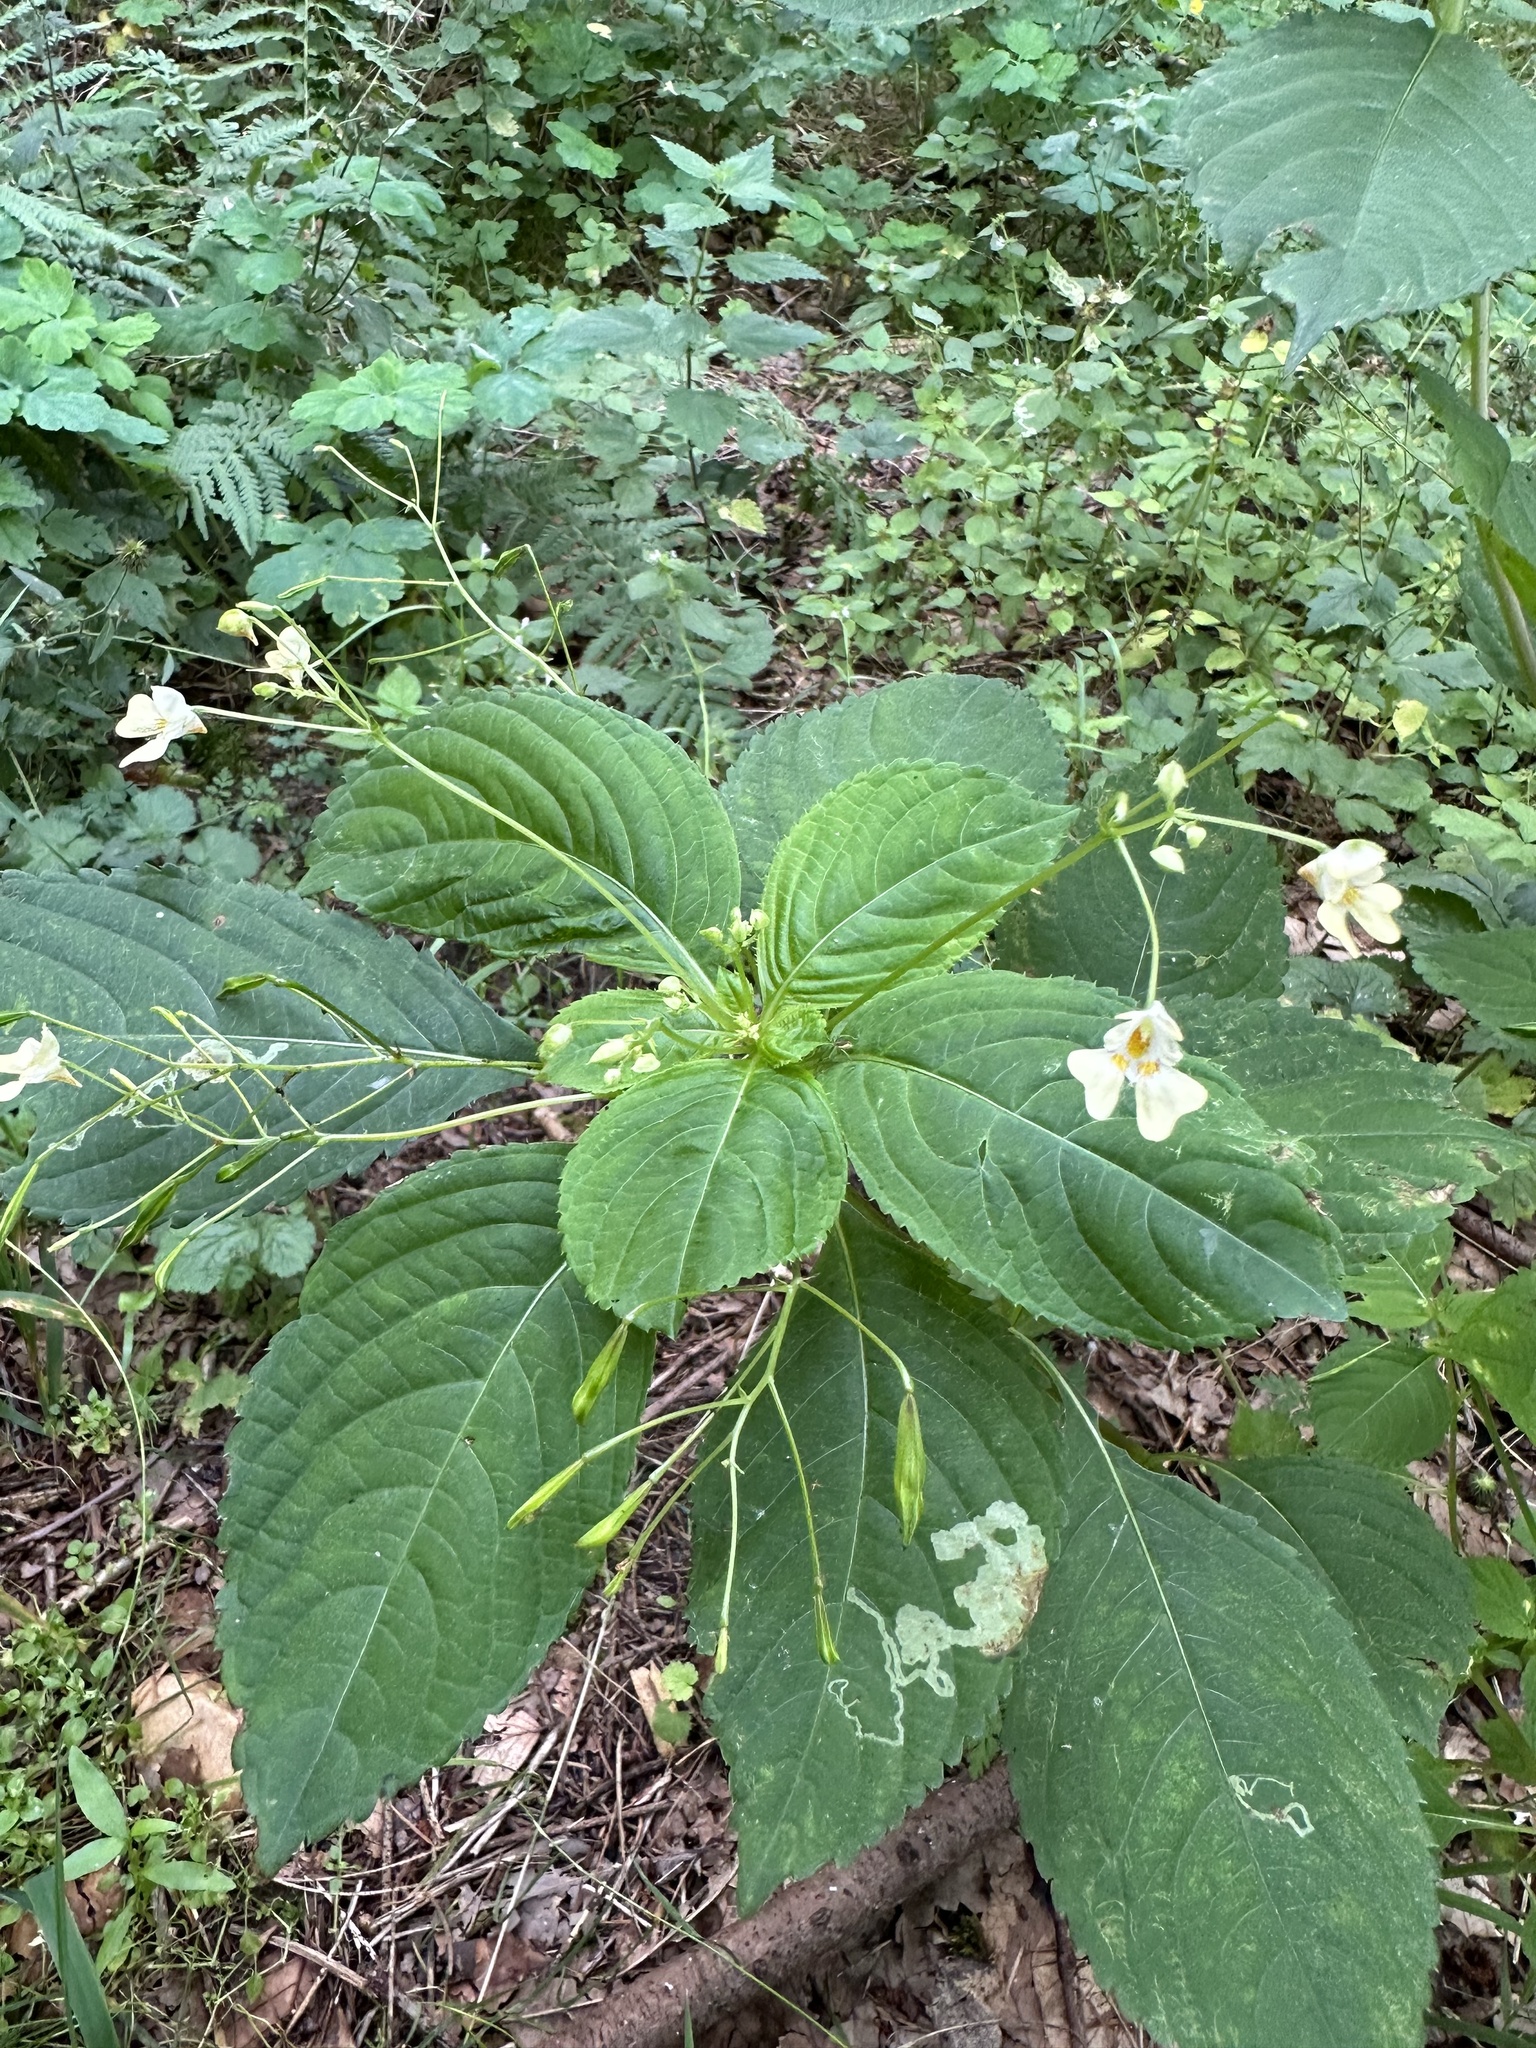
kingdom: Plantae
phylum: Tracheophyta
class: Magnoliopsida
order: Ericales
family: Balsaminaceae
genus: Impatiens
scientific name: Impatiens parviflora
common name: Small balsam
